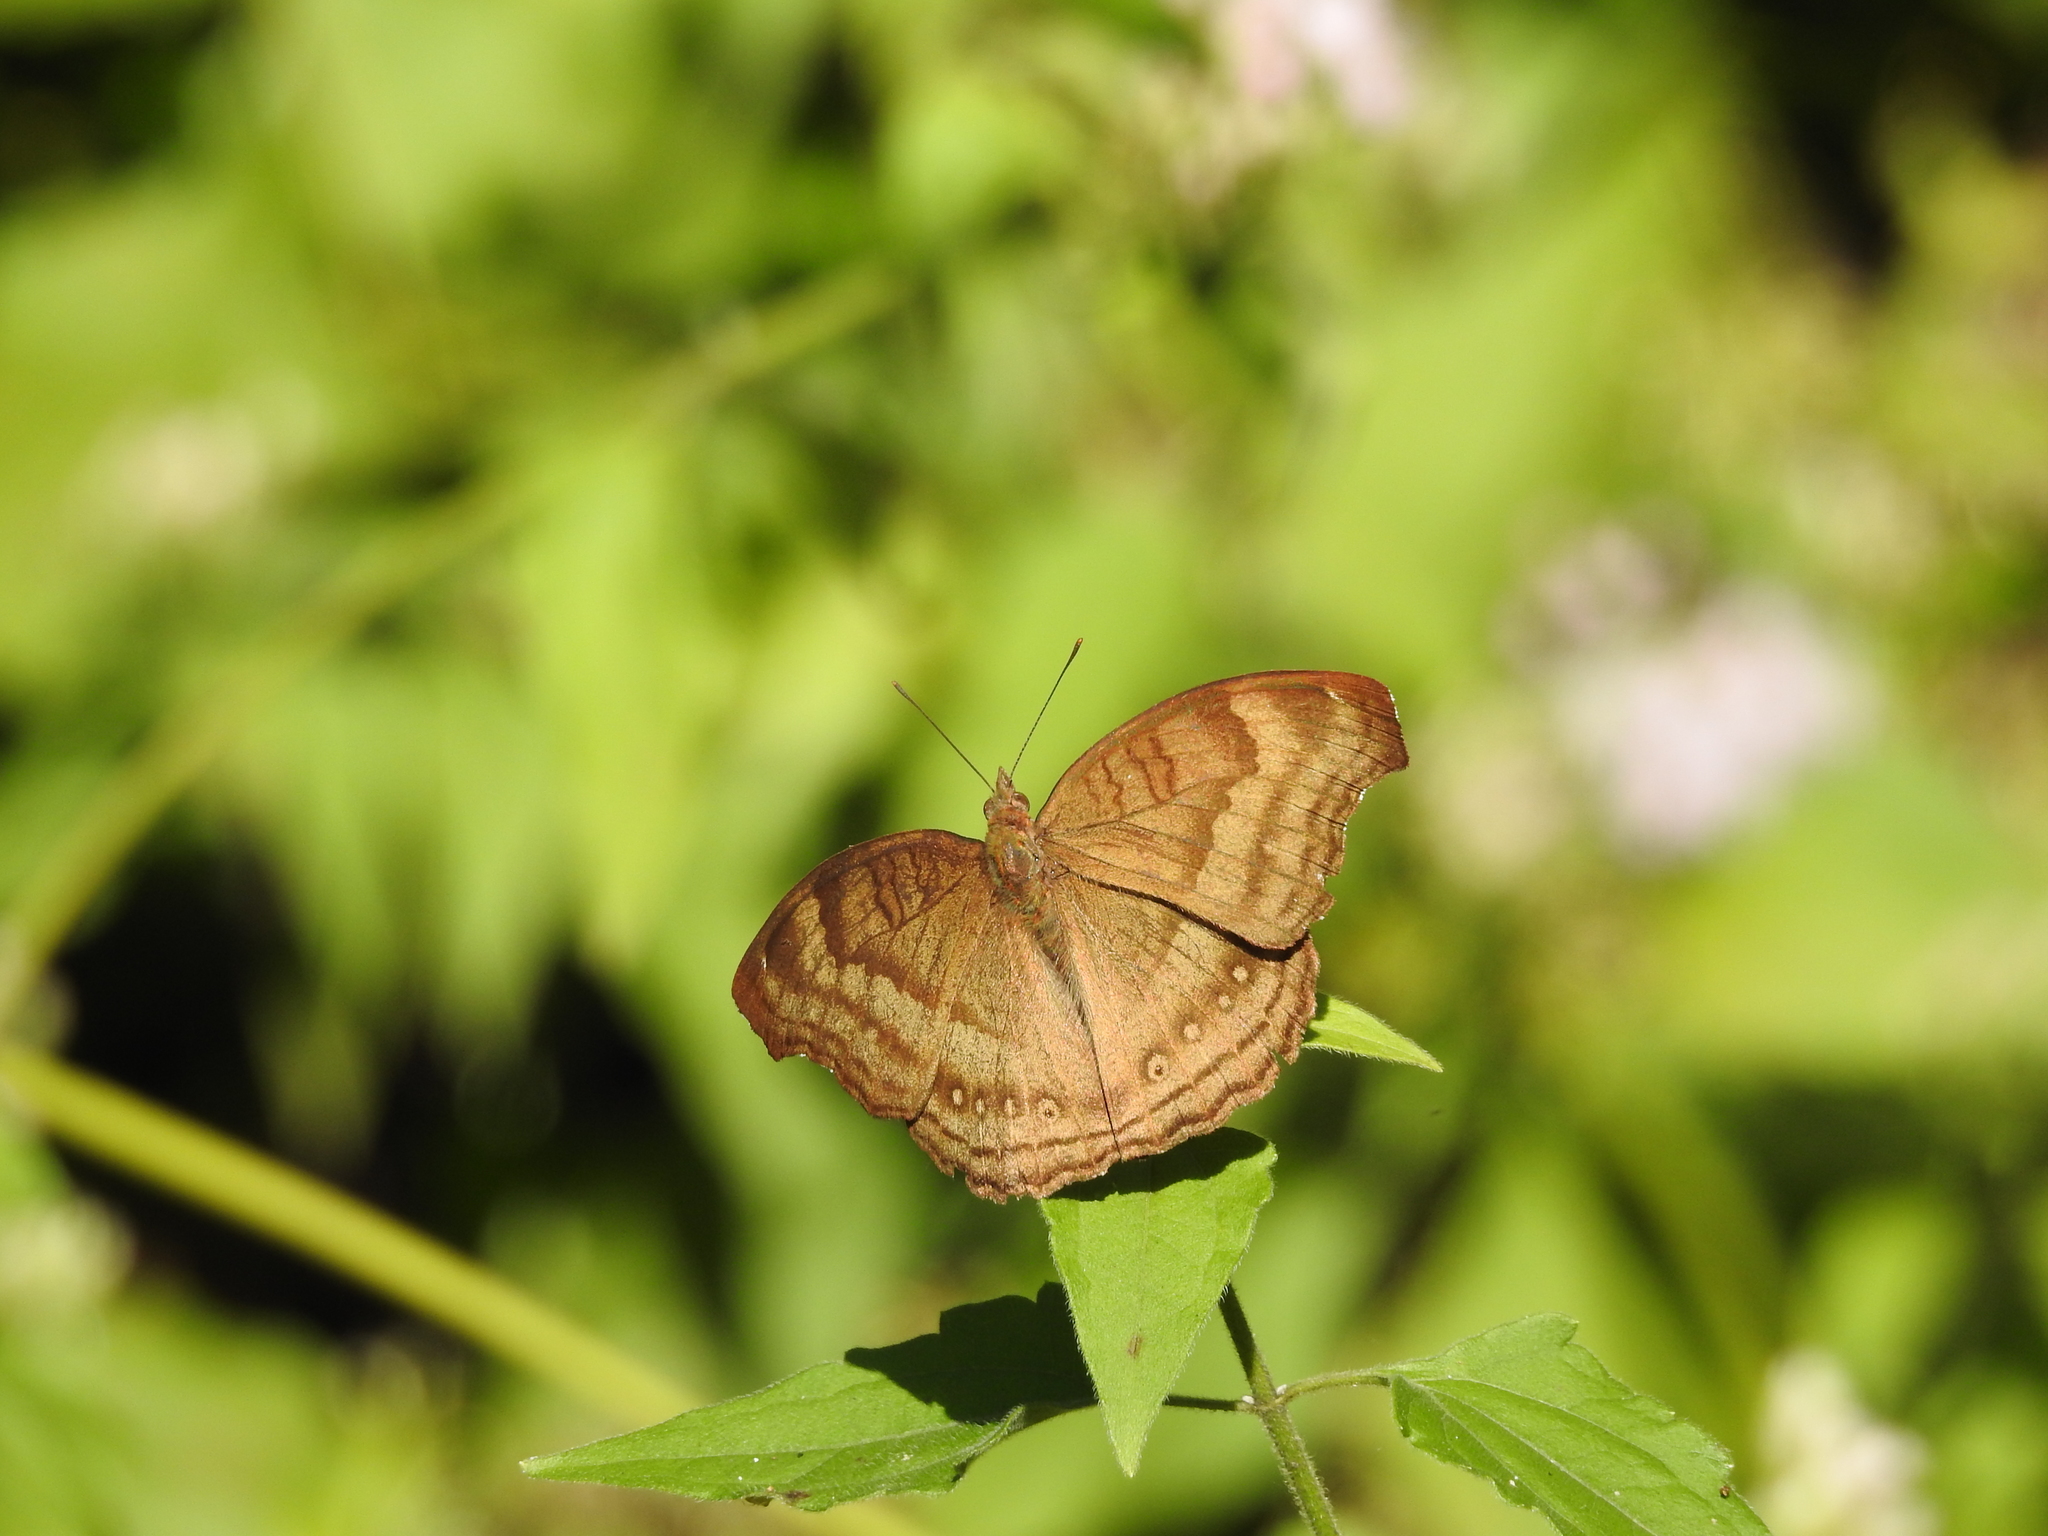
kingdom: Animalia
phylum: Arthropoda
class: Insecta
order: Lepidoptera
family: Nymphalidae
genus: Junonia
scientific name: Junonia iphita
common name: Chocolate pansy
